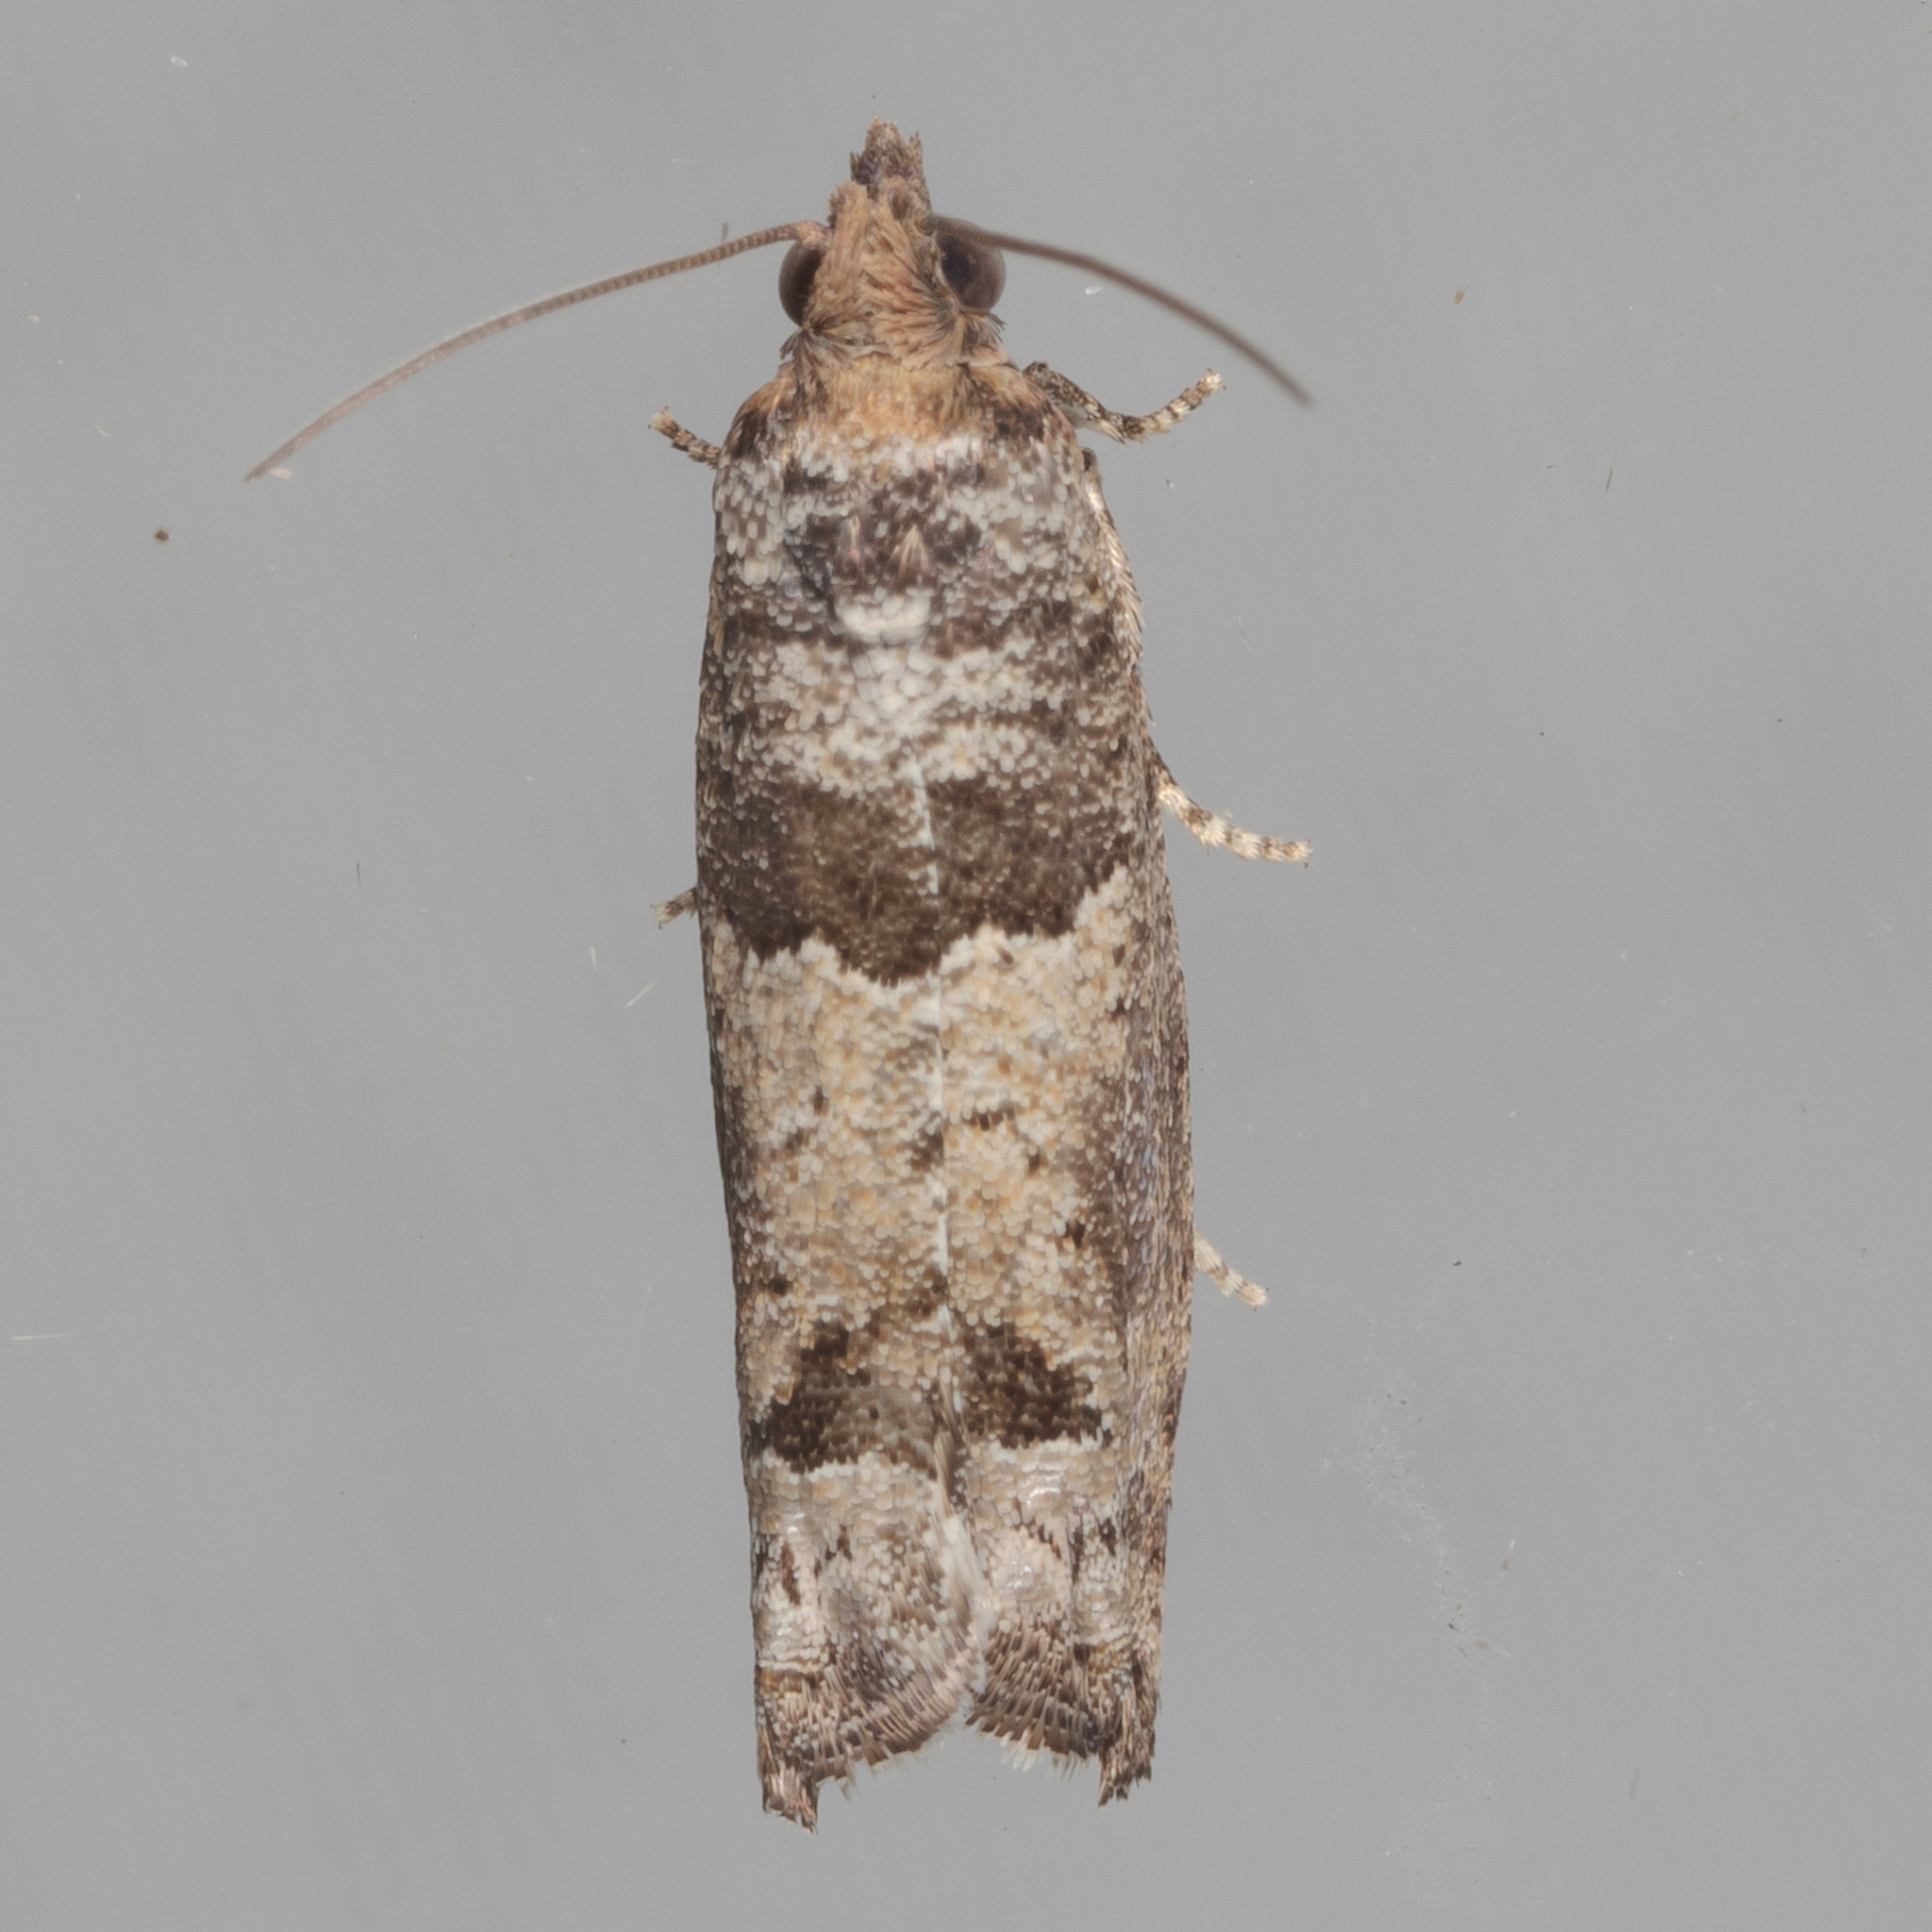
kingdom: Animalia
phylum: Arthropoda
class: Insecta
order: Lepidoptera
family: Tortricidae
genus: Pseudexentera
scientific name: Pseudexentera knudsoni
